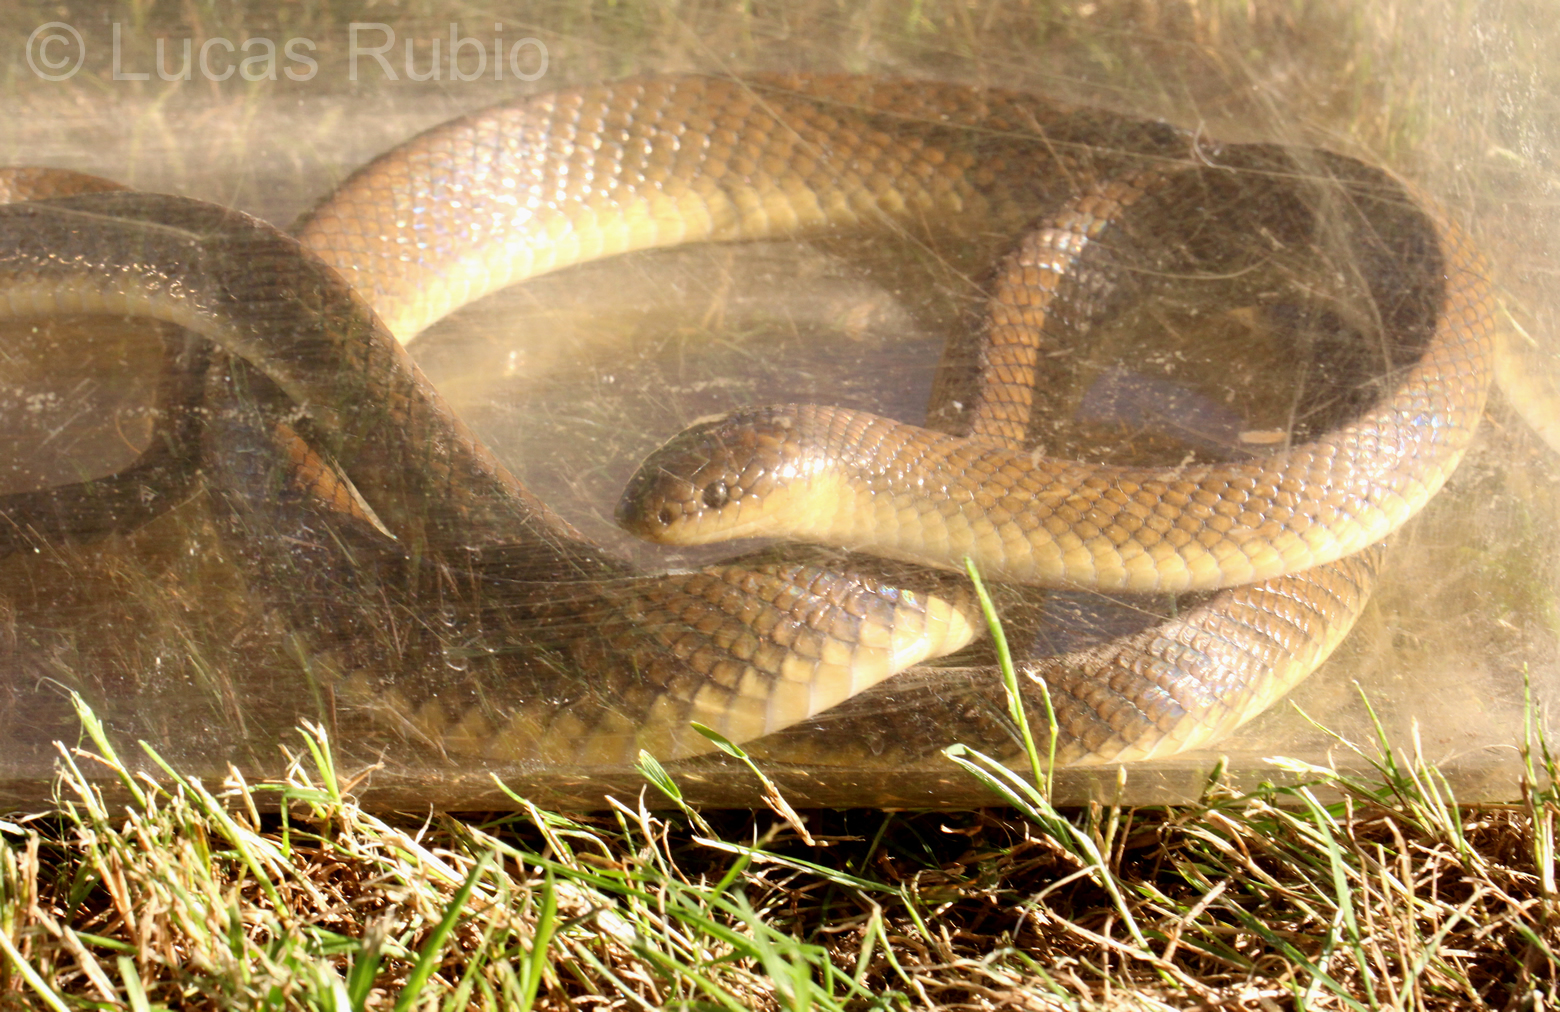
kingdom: Animalia
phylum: Chordata
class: Squamata
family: Colubridae
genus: Paraphimophis
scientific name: Paraphimophis rusticus
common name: Culebra
